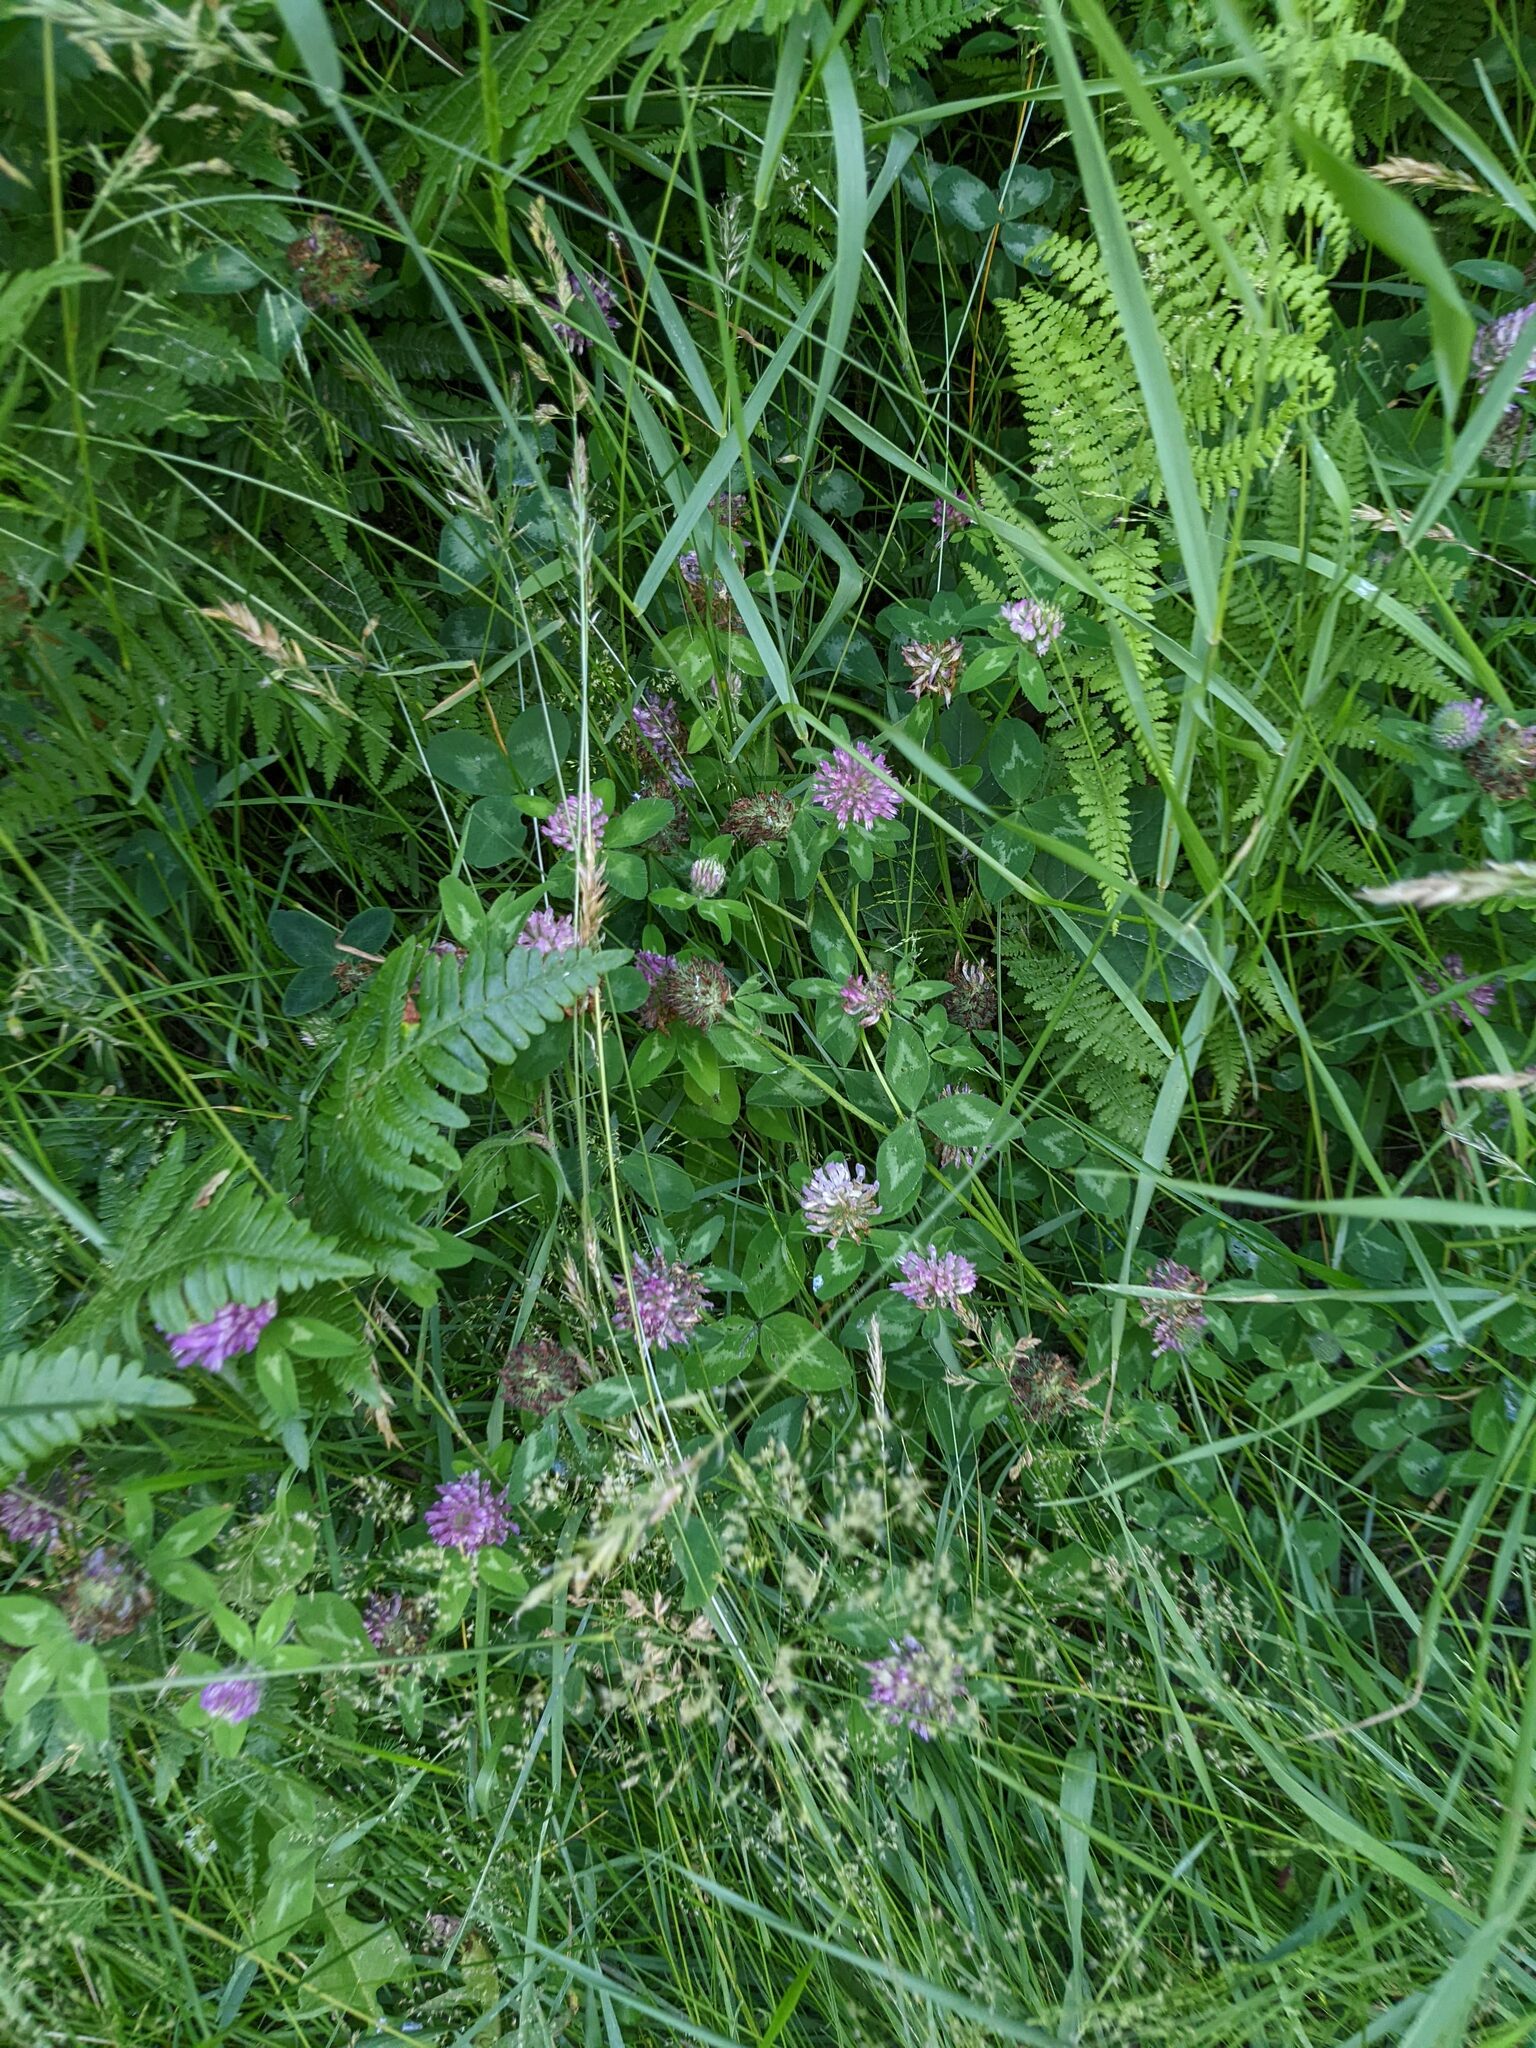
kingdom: Plantae
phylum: Tracheophyta
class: Magnoliopsida
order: Fabales
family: Fabaceae
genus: Trifolium
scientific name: Trifolium pratense
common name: Red clover
